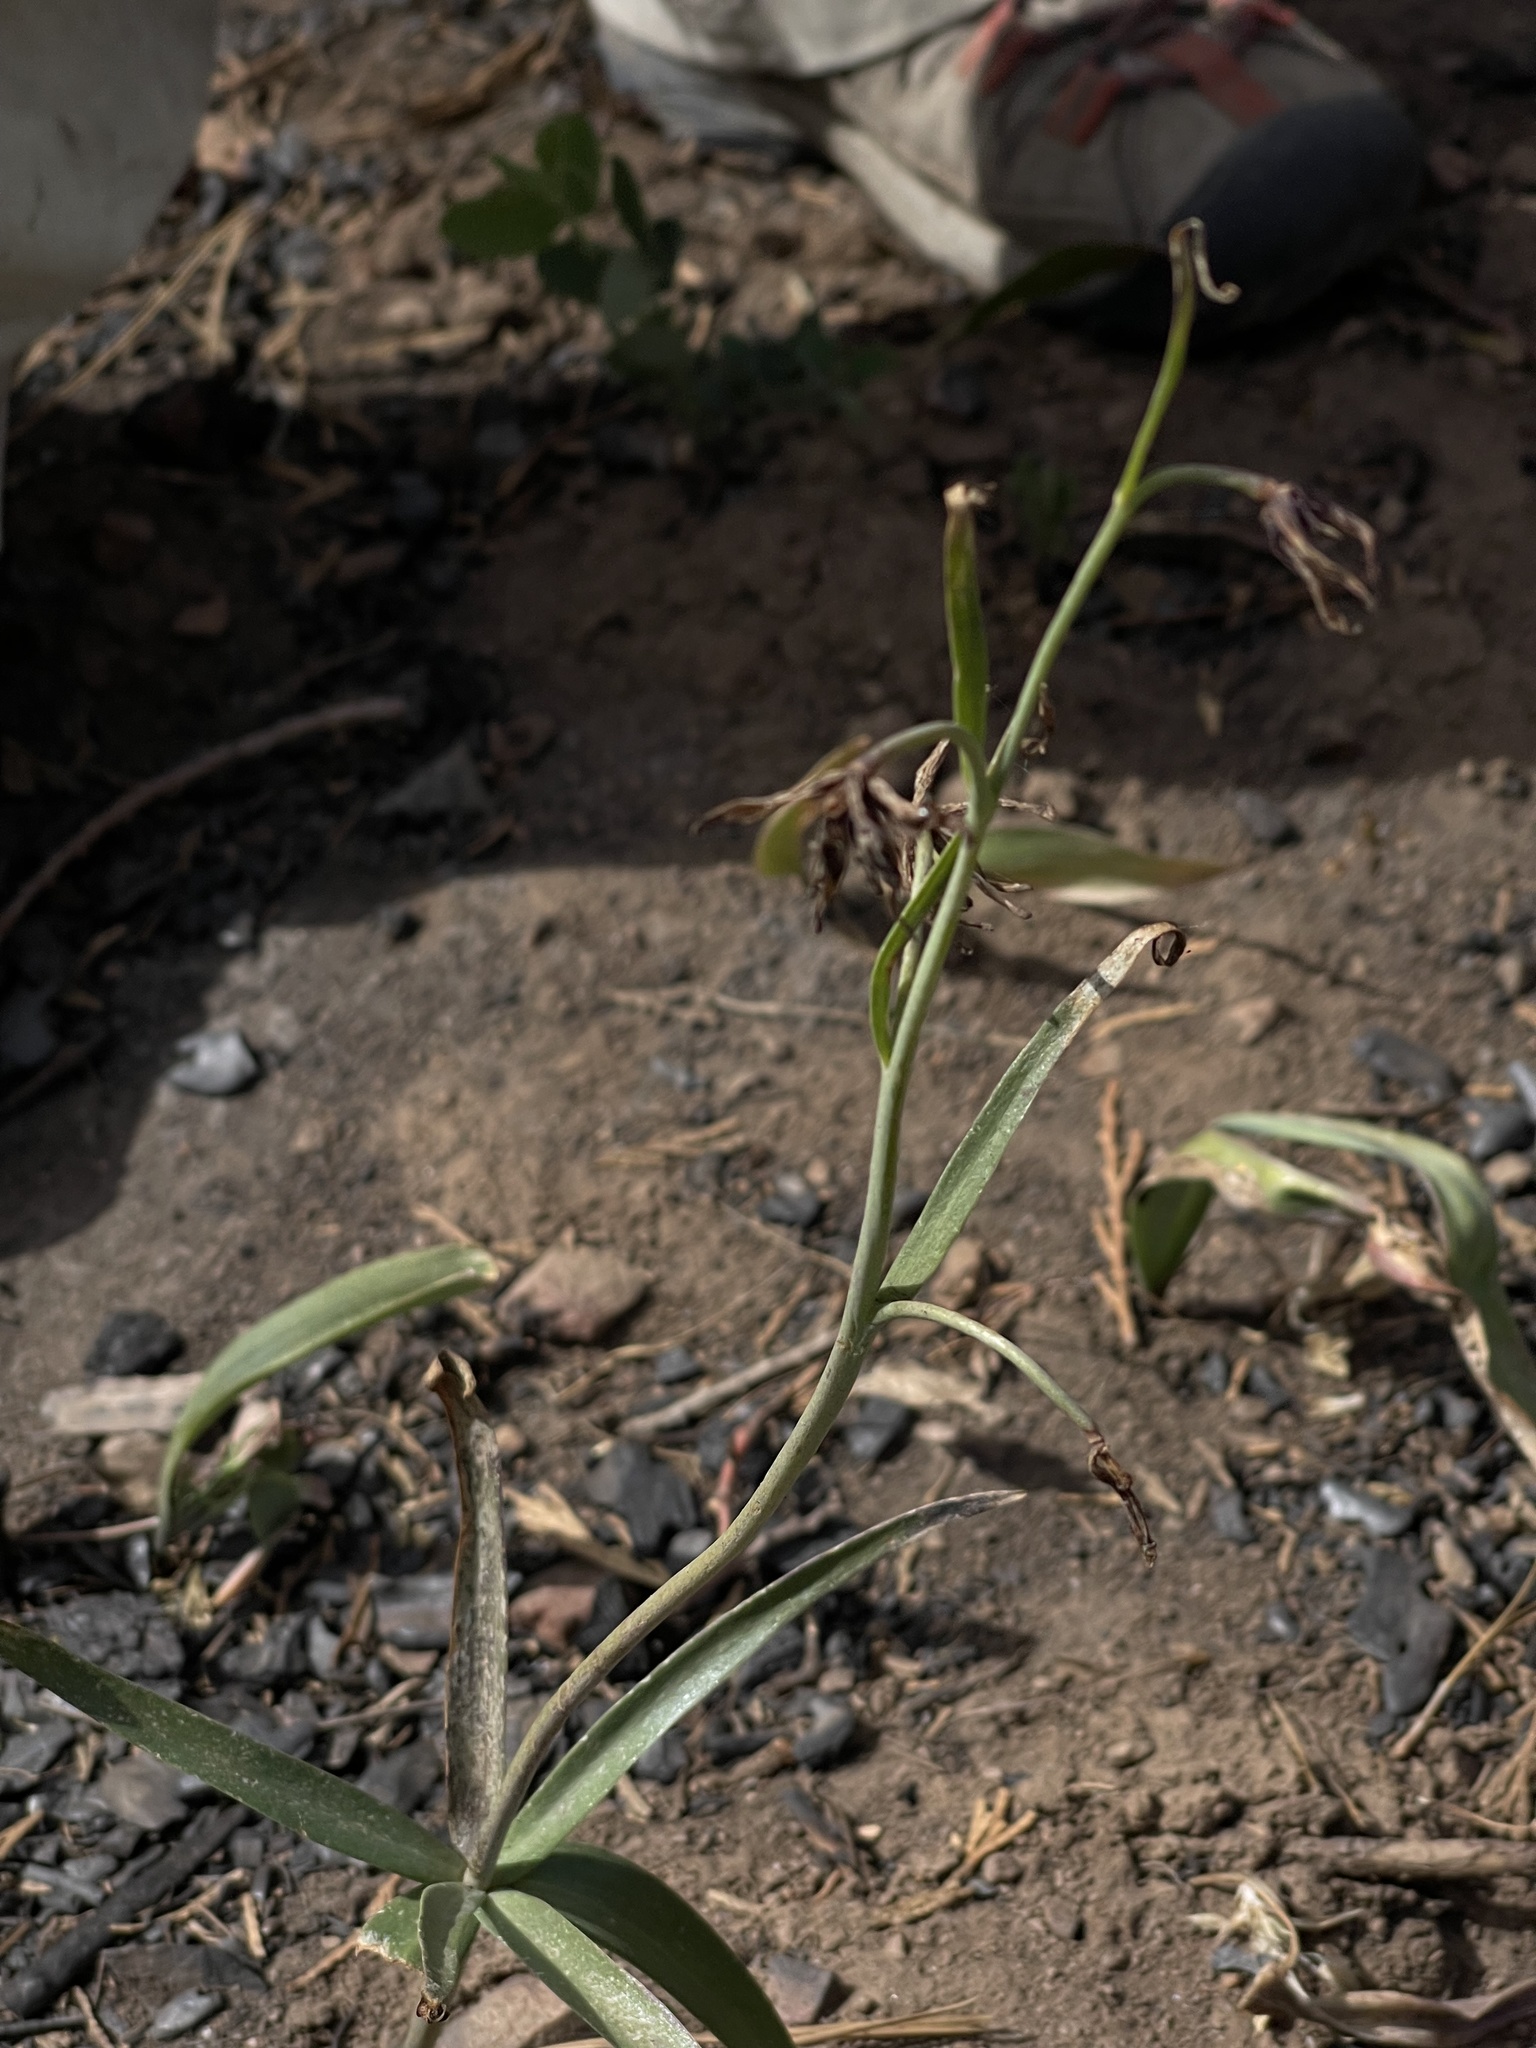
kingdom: Plantae
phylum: Tracheophyta
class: Liliopsida
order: Liliales
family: Liliaceae
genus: Fritillaria
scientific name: Fritillaria brandegeei
